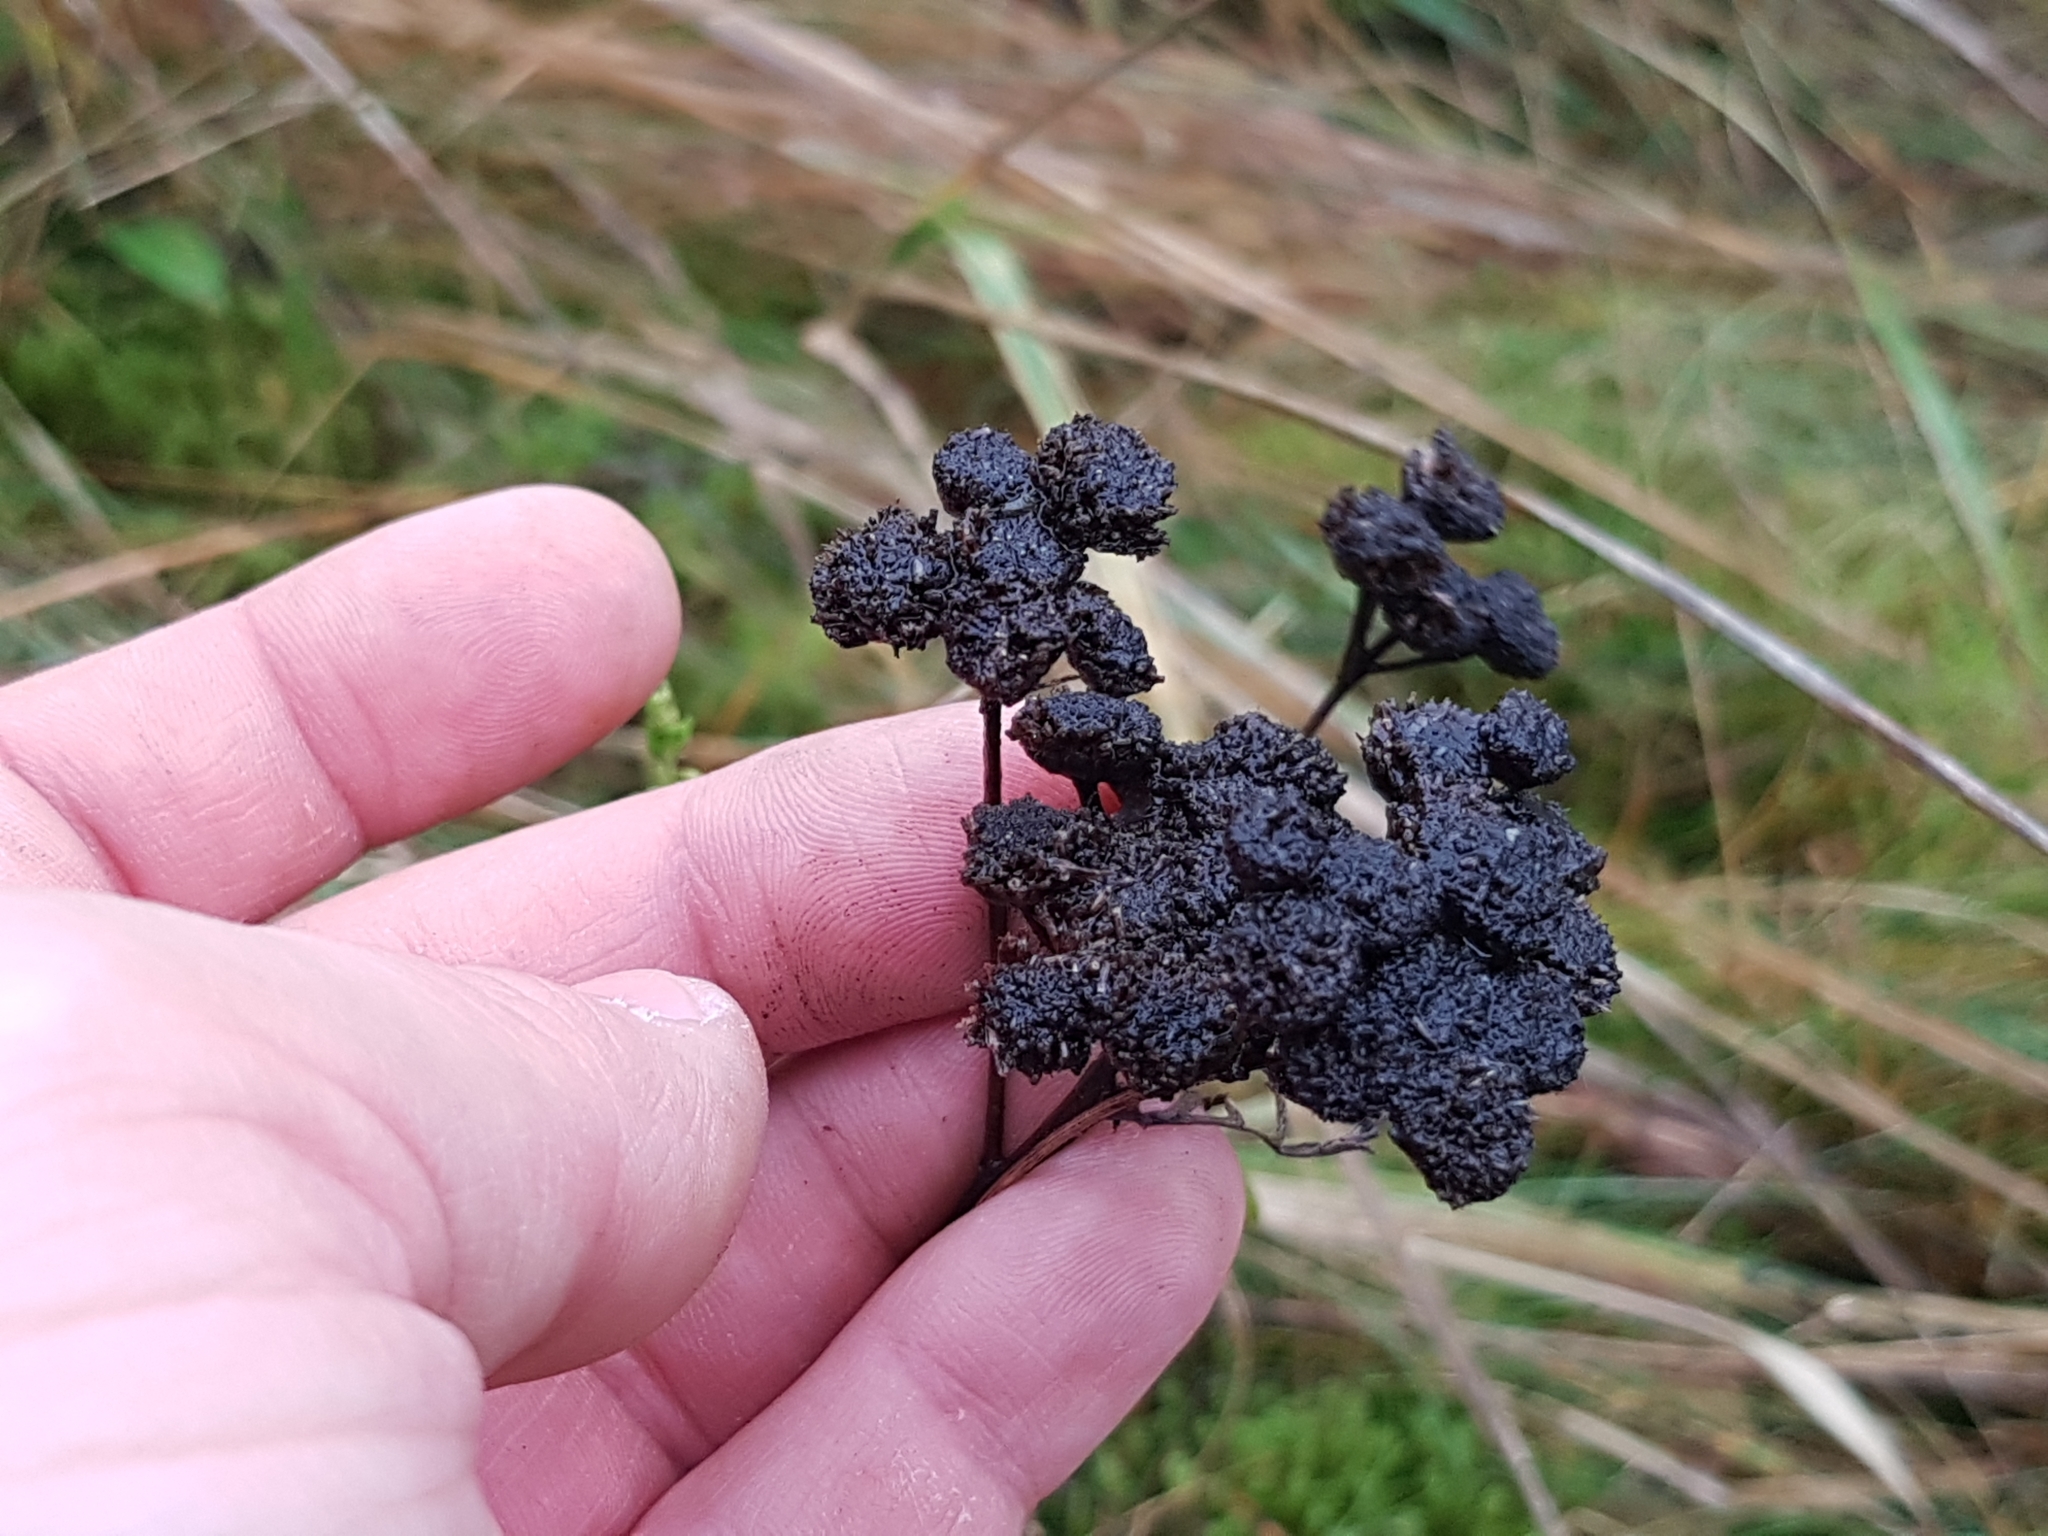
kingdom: Plantae
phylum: Tracheophyta
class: Magnoliopsida
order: Asterales
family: Asteraceae
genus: Tanacetum
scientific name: Tanacetum vulgare
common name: Common tansy
